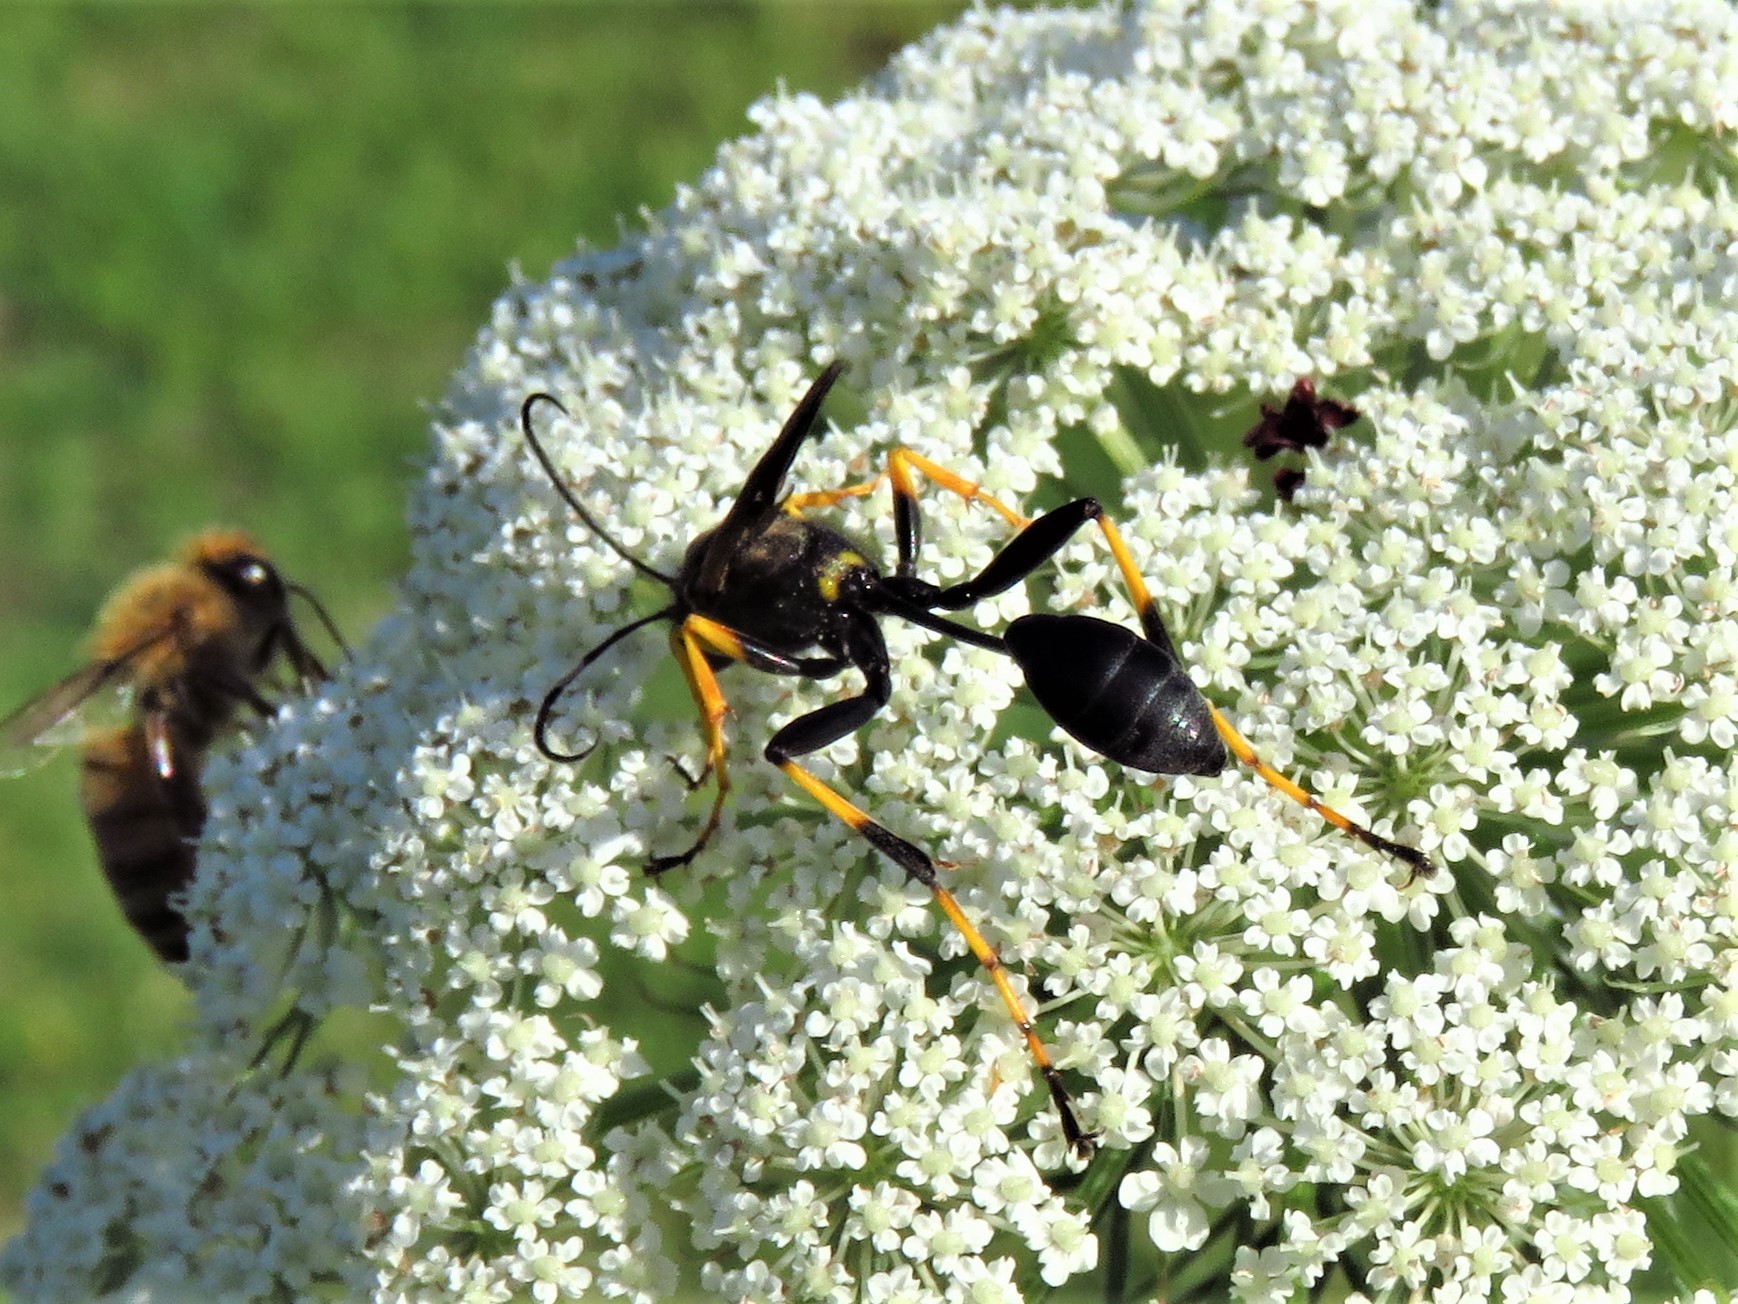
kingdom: Animalia
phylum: Arthropoda
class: Insecta
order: Hymenoptera
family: Sphecidae
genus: Sceliphron
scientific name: Sceliphron caementarium
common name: Mud dauber
